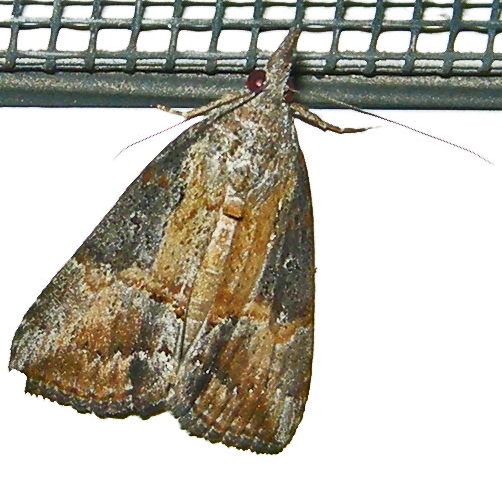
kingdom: Animalia
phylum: Arthropoda
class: Insecta
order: Lepidoptera
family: Erebidae
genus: Hypena
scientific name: Hypena scabra
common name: Green cloverworm
